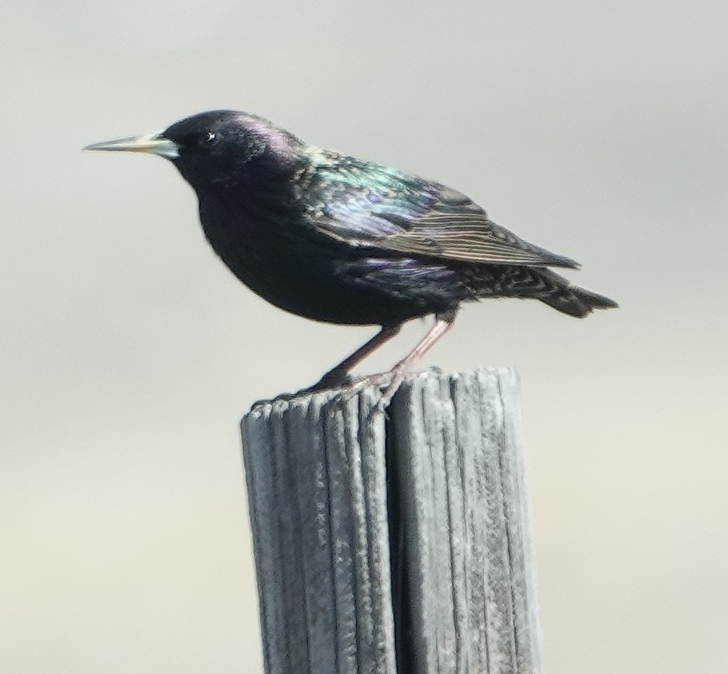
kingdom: Animalia
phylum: Chordata
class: Aves
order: Passeriformes
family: Sturnidae
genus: Sturnus
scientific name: Sturnus vulgaris
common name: Common starling
